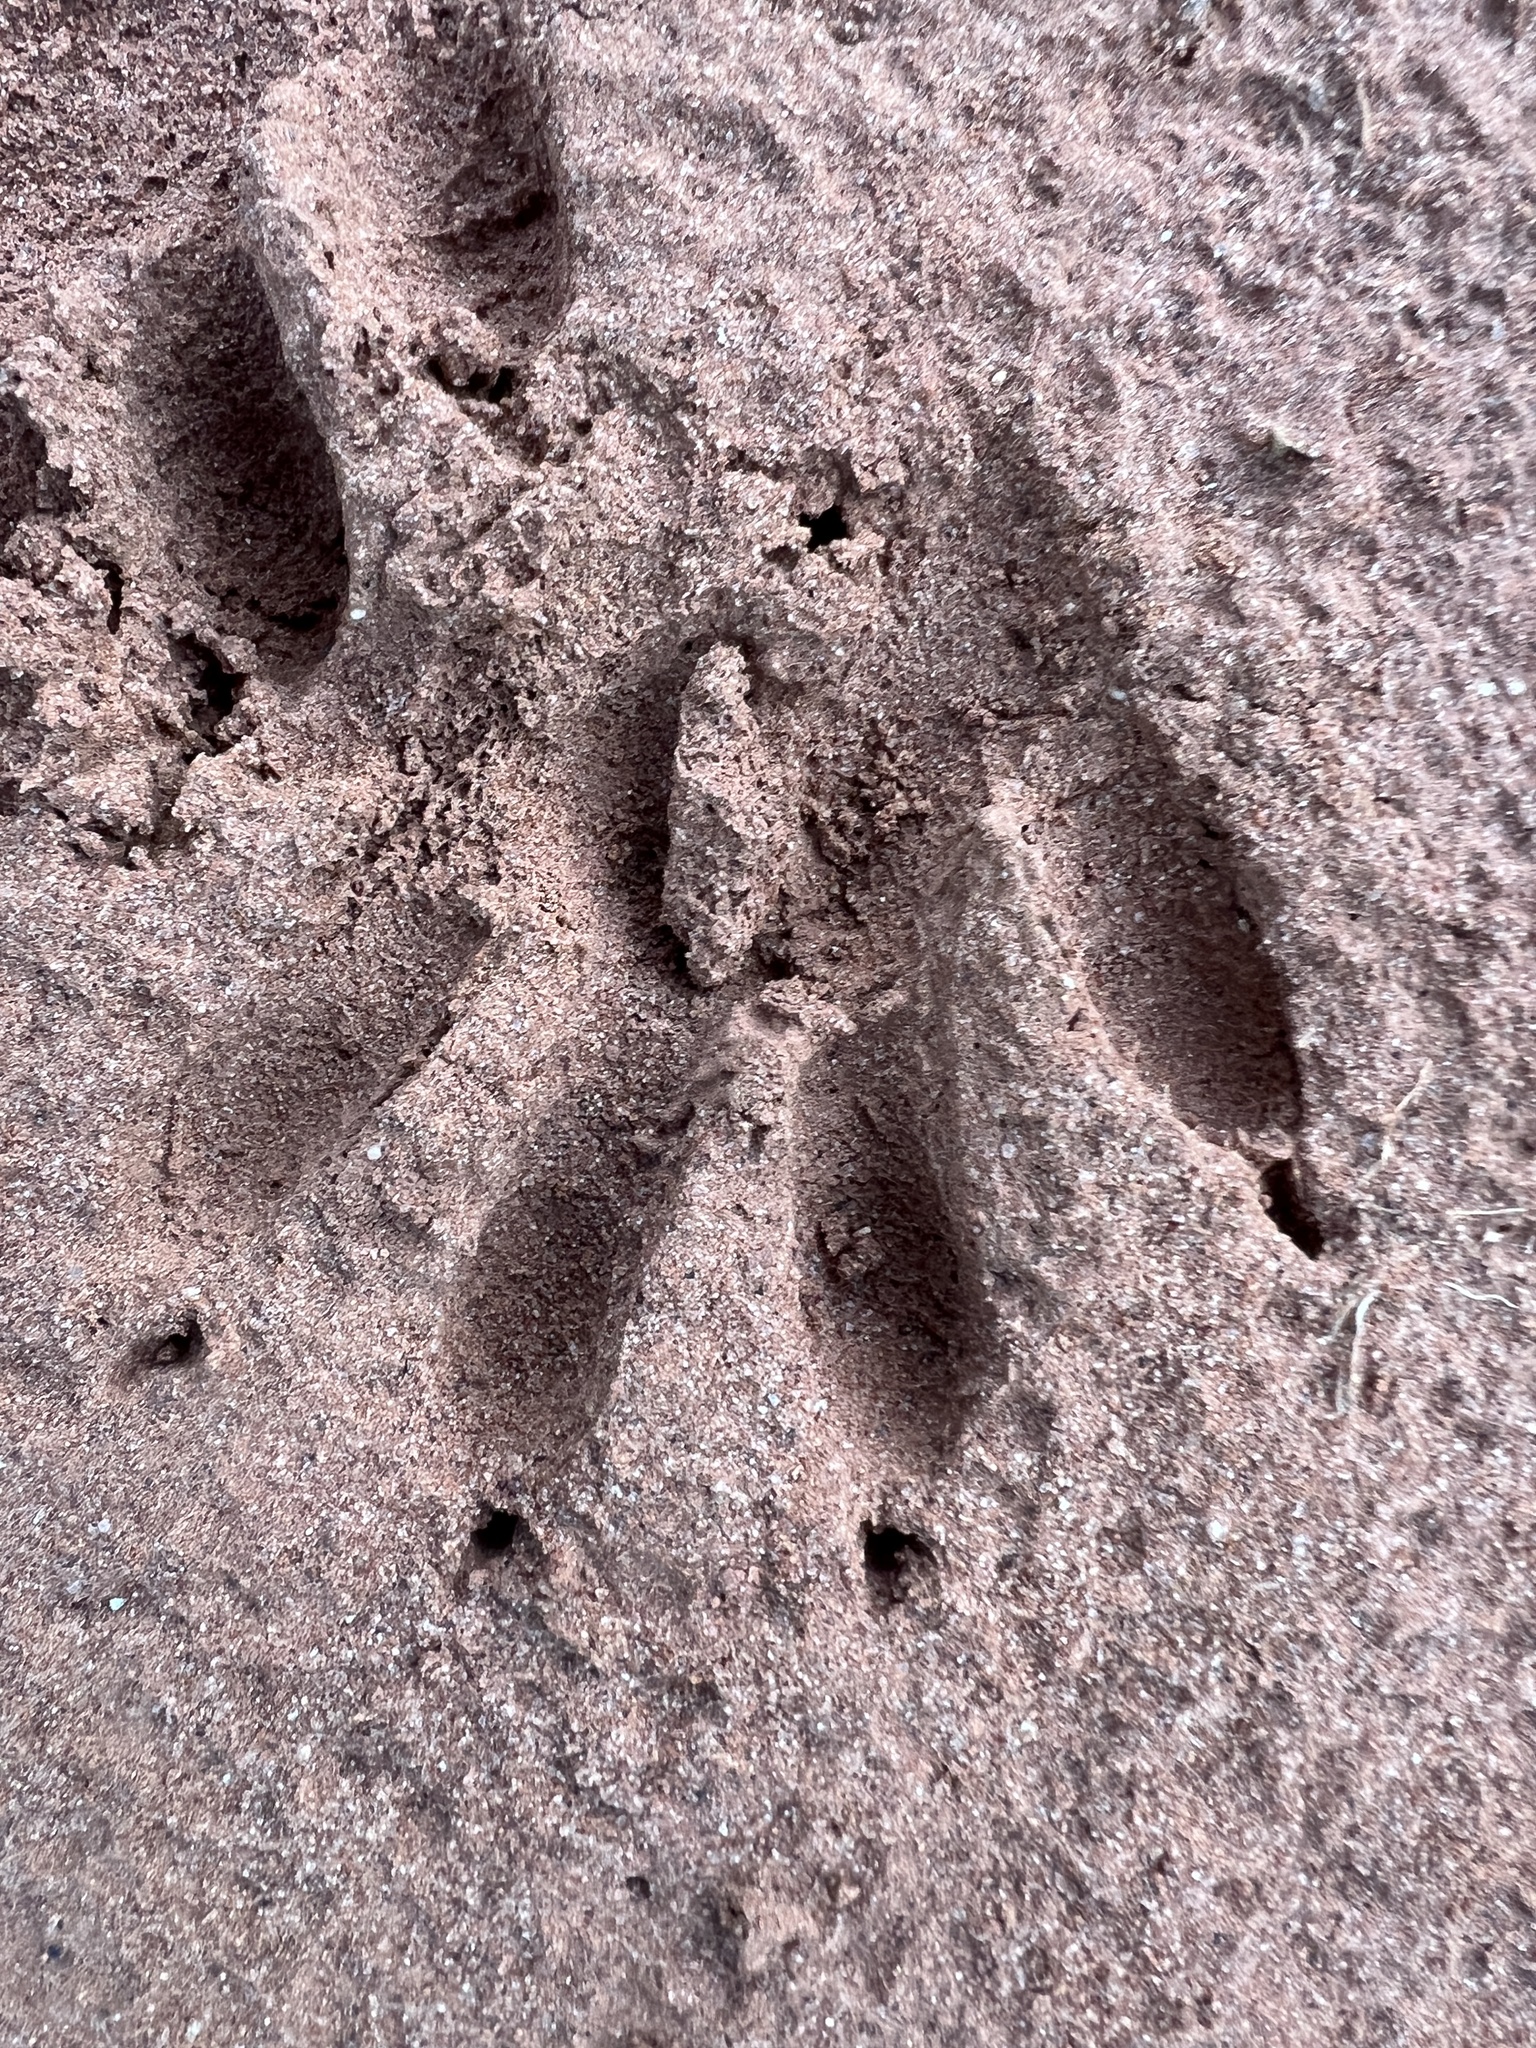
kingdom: Animalia
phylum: Chordata
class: Mammalia
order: Carnivora
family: Procyonidae
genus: Procyon
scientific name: Procyon lotor
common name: Raccoon
